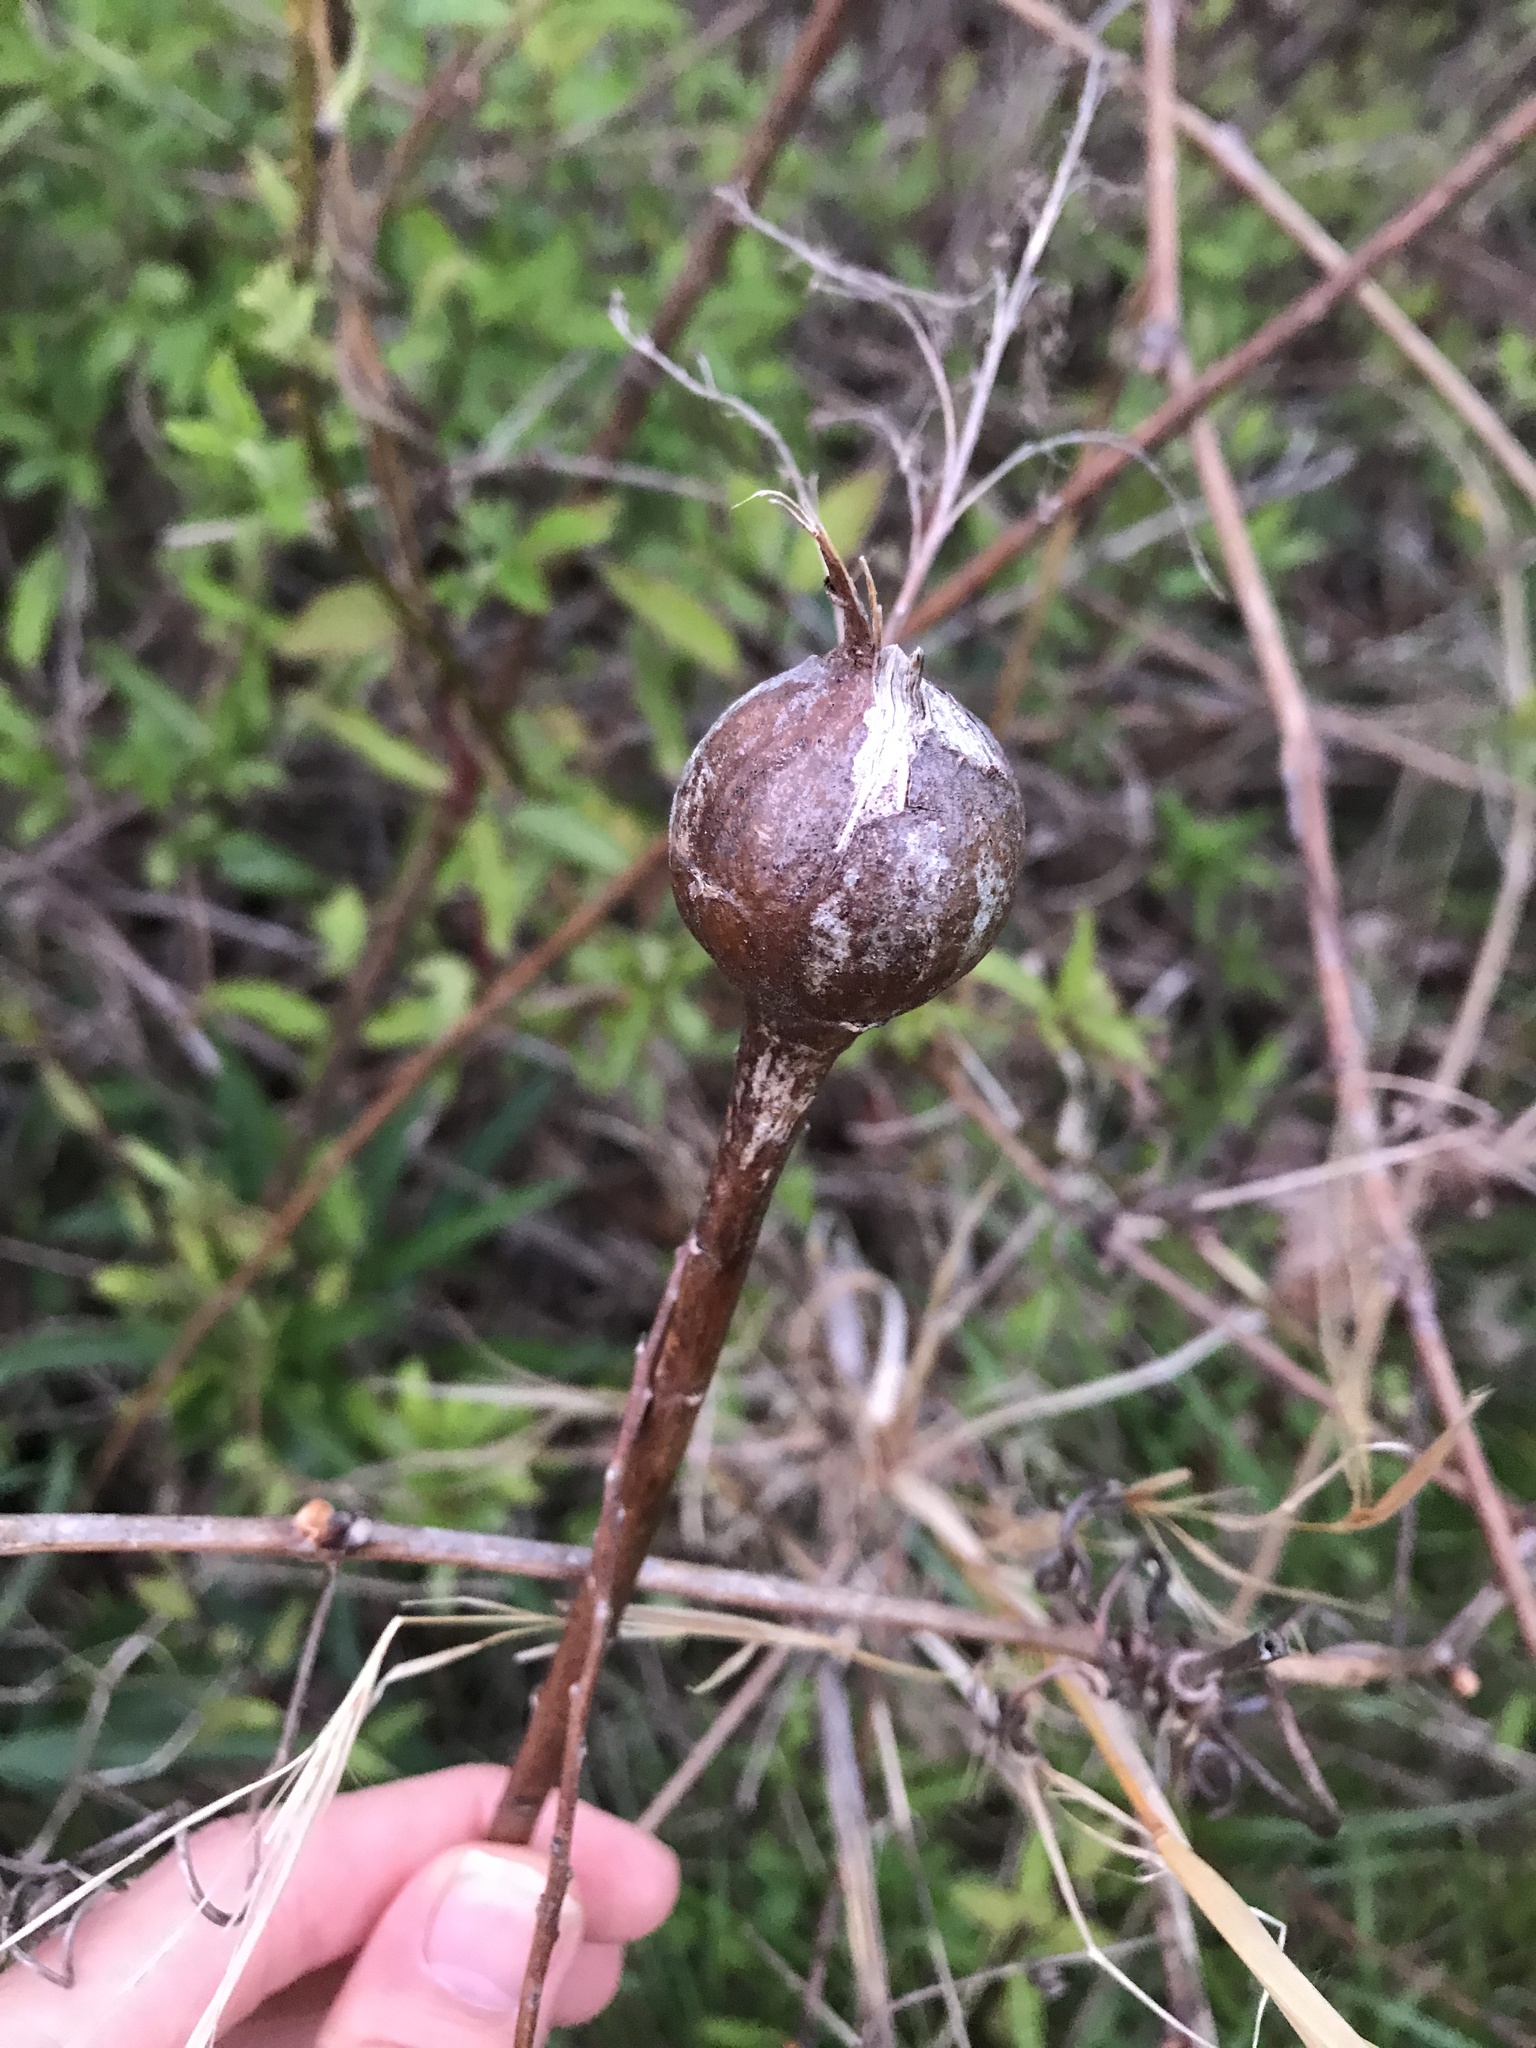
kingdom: Animalia
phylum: Arthropoda
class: Insecta
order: Diptera
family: Tephritidae
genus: Eurosta
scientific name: Eurosta solidaginis
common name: Goldenrod gall fly
